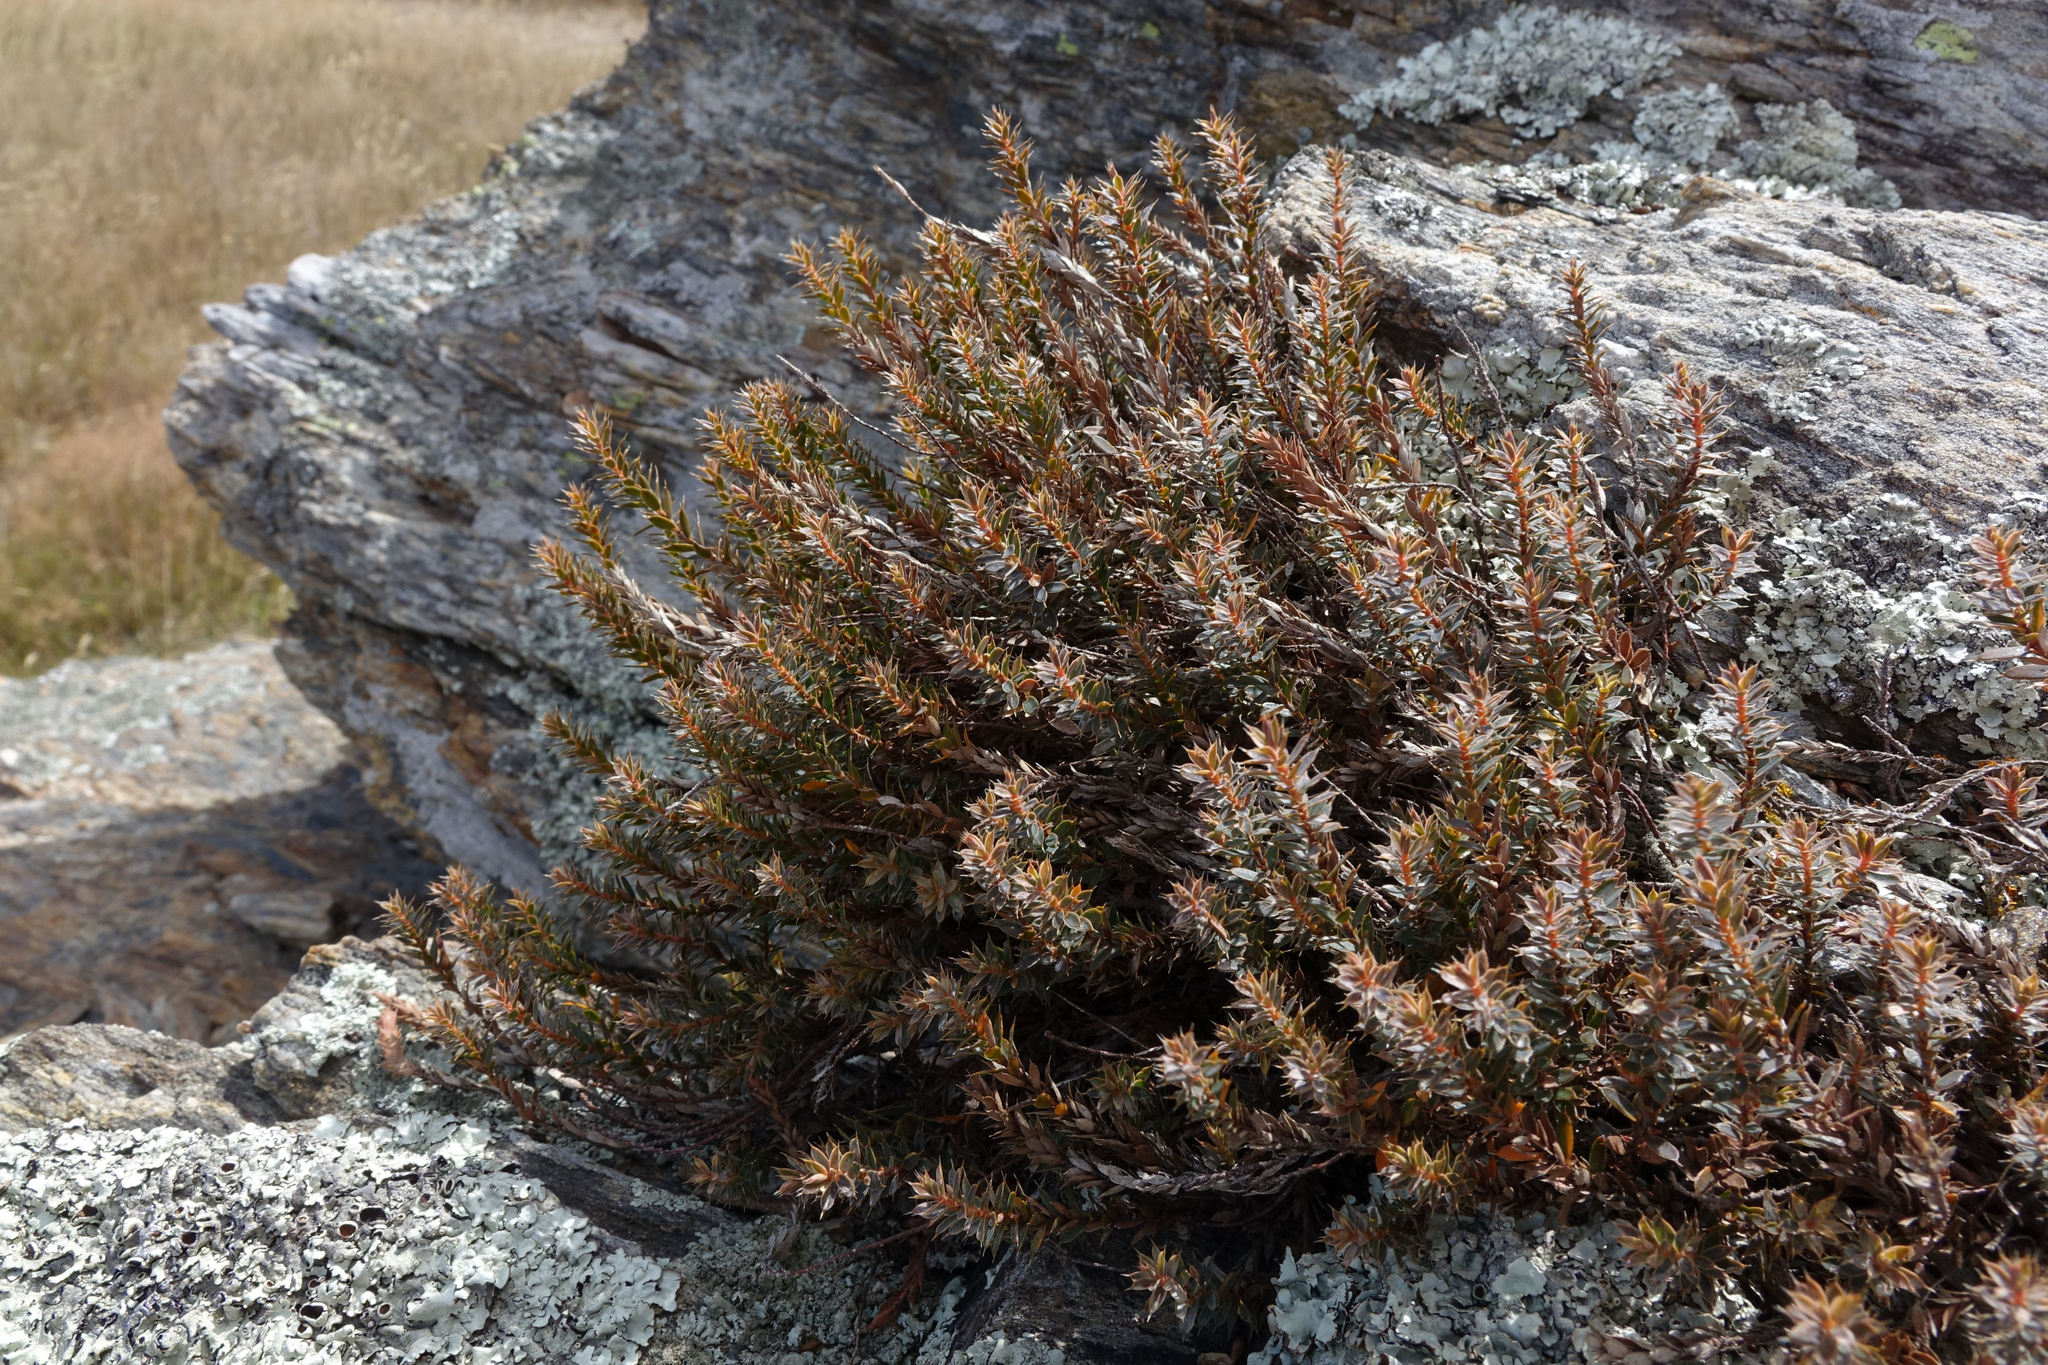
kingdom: Plantae
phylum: Tracheophyta
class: Magnoliopsida
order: Ericales
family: Ericaceae
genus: Styphelia
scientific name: Styphelia nesophila
